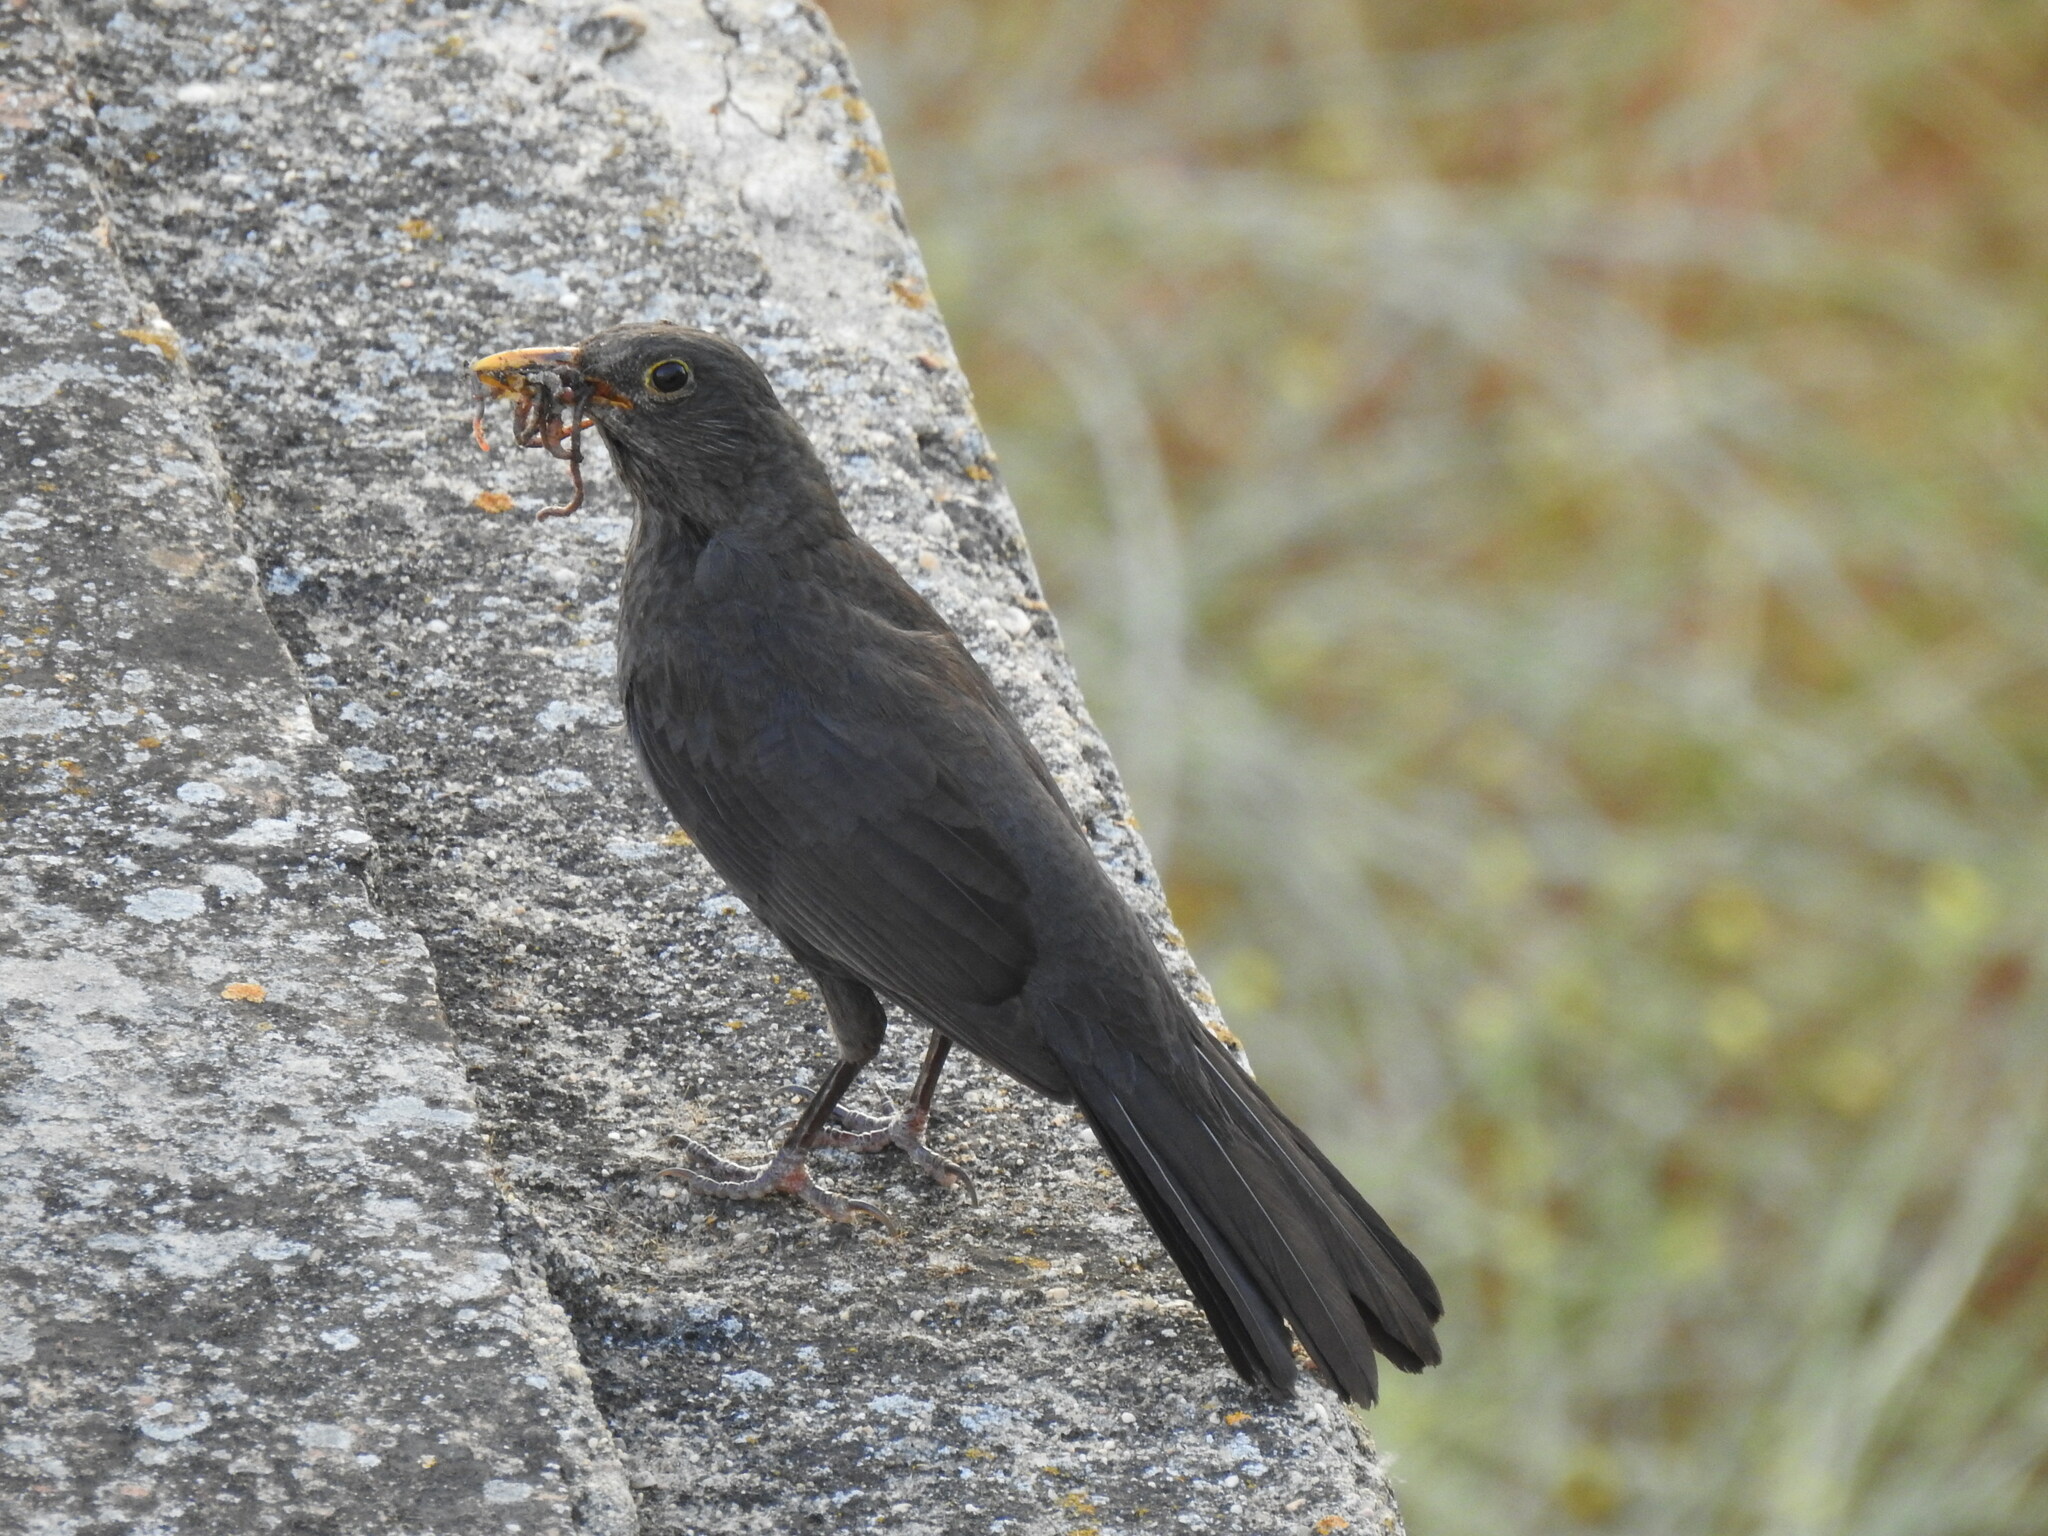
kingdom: Animalia
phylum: Chordata
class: Aves
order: Passeriformes
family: Turdidae
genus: Turdus
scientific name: Turdus merula
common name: Common blackbird
